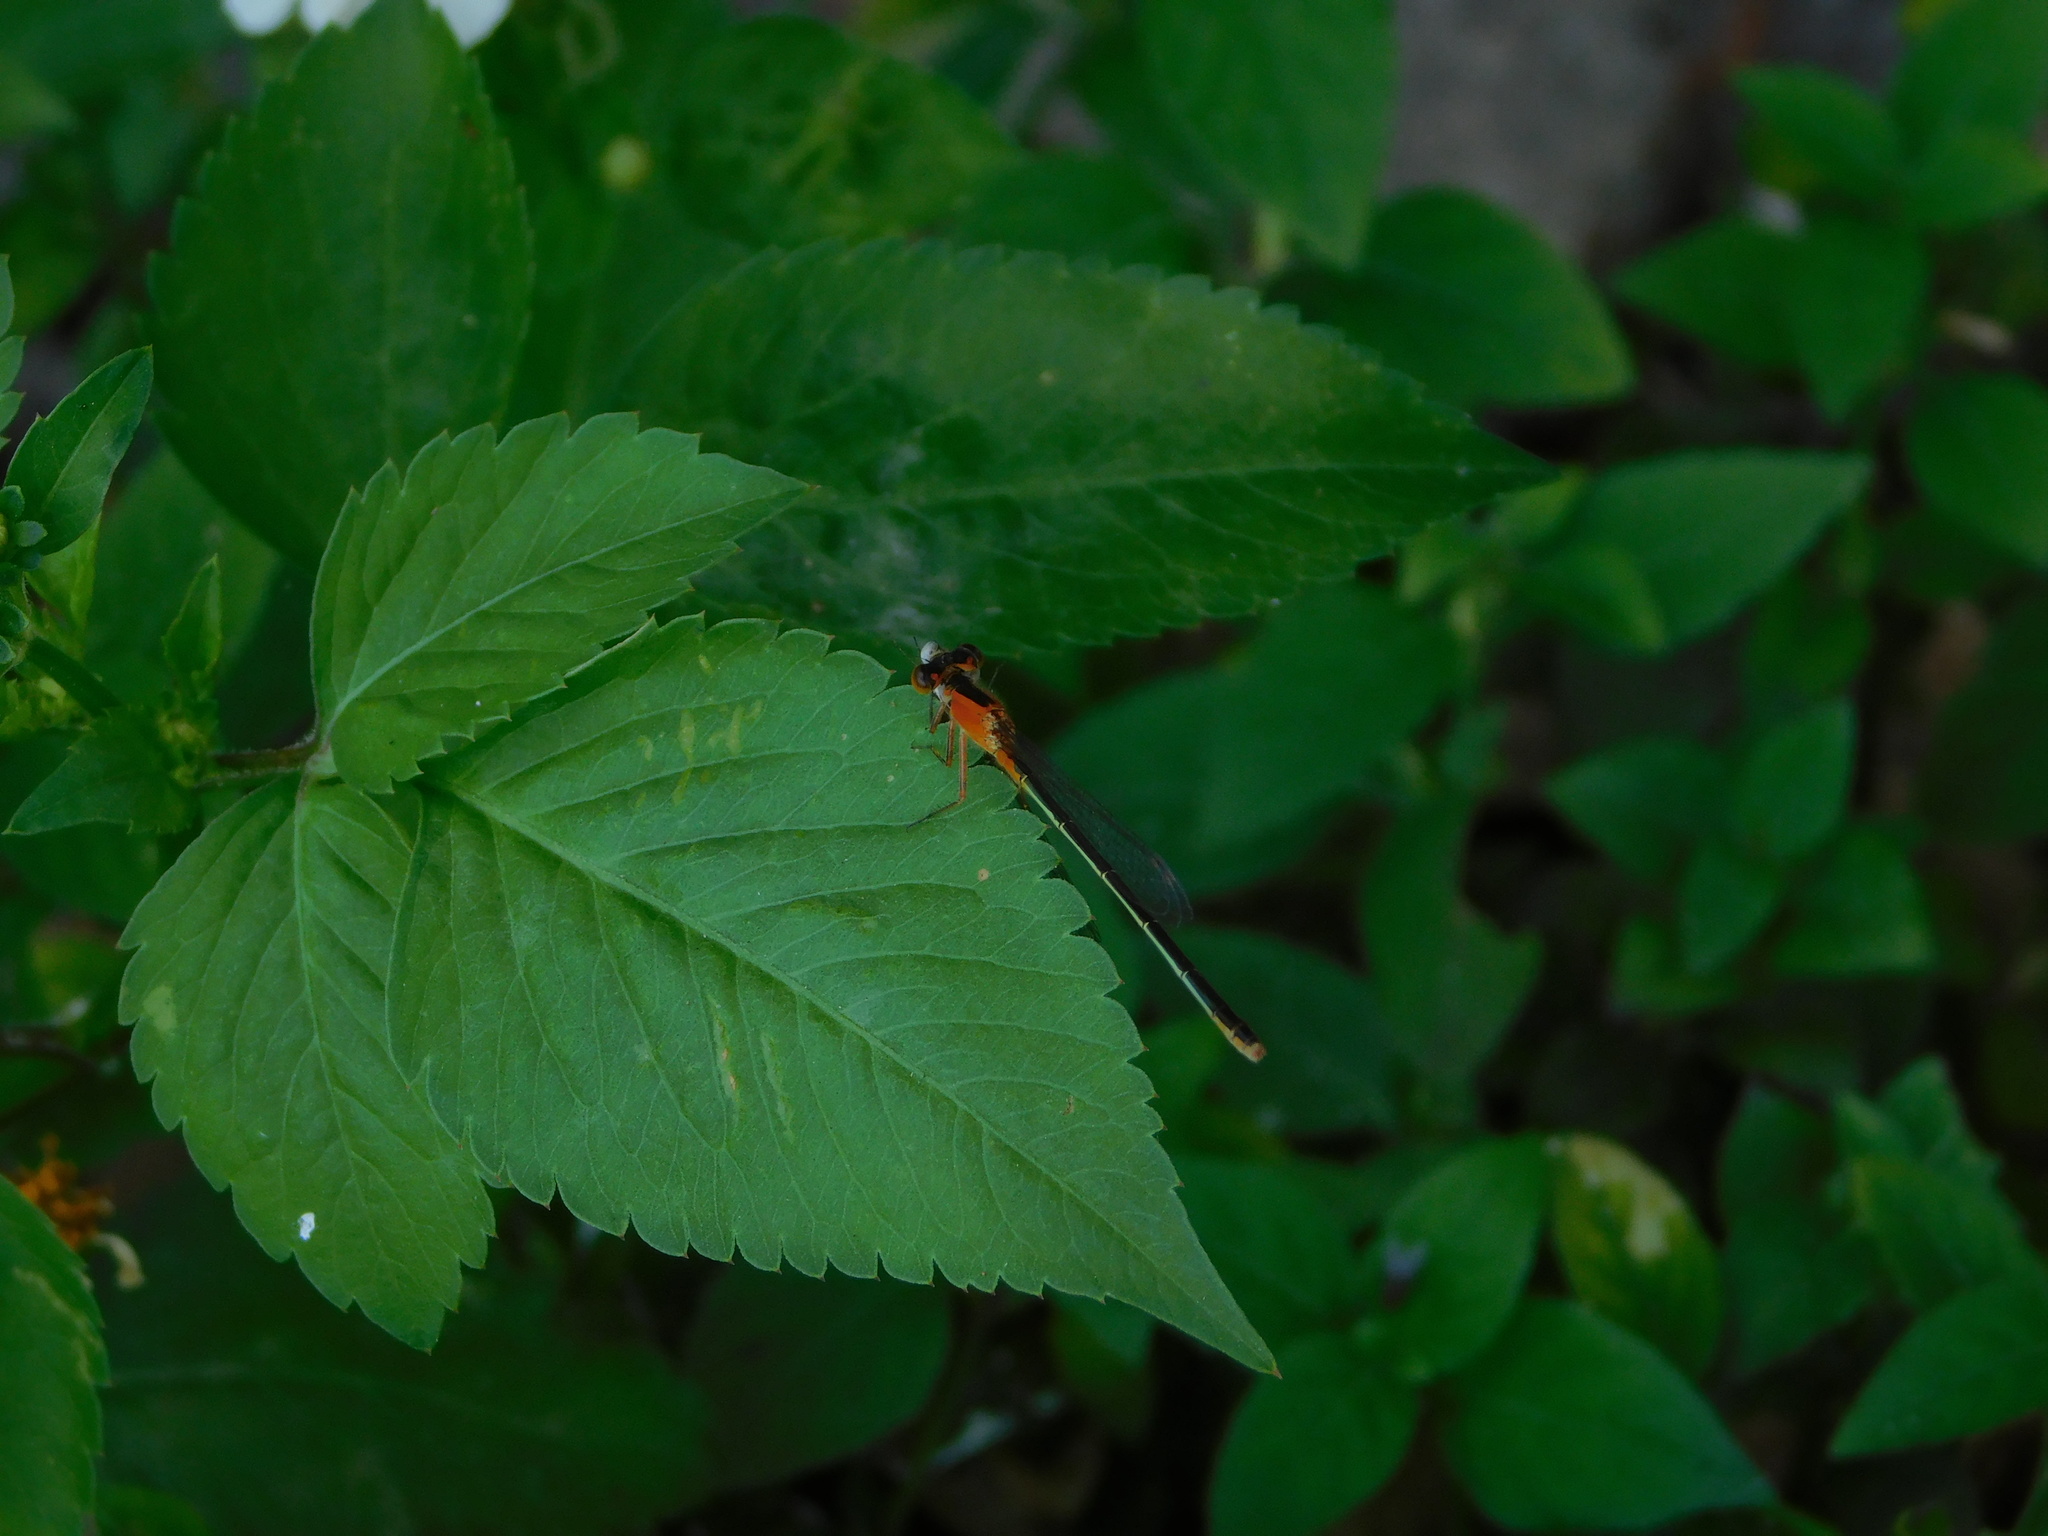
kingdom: Plantae
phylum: Tracheophyta
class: Magnoliopsida
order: Asterales
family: Asteraceae
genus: Bidens
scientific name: Bidens alba
